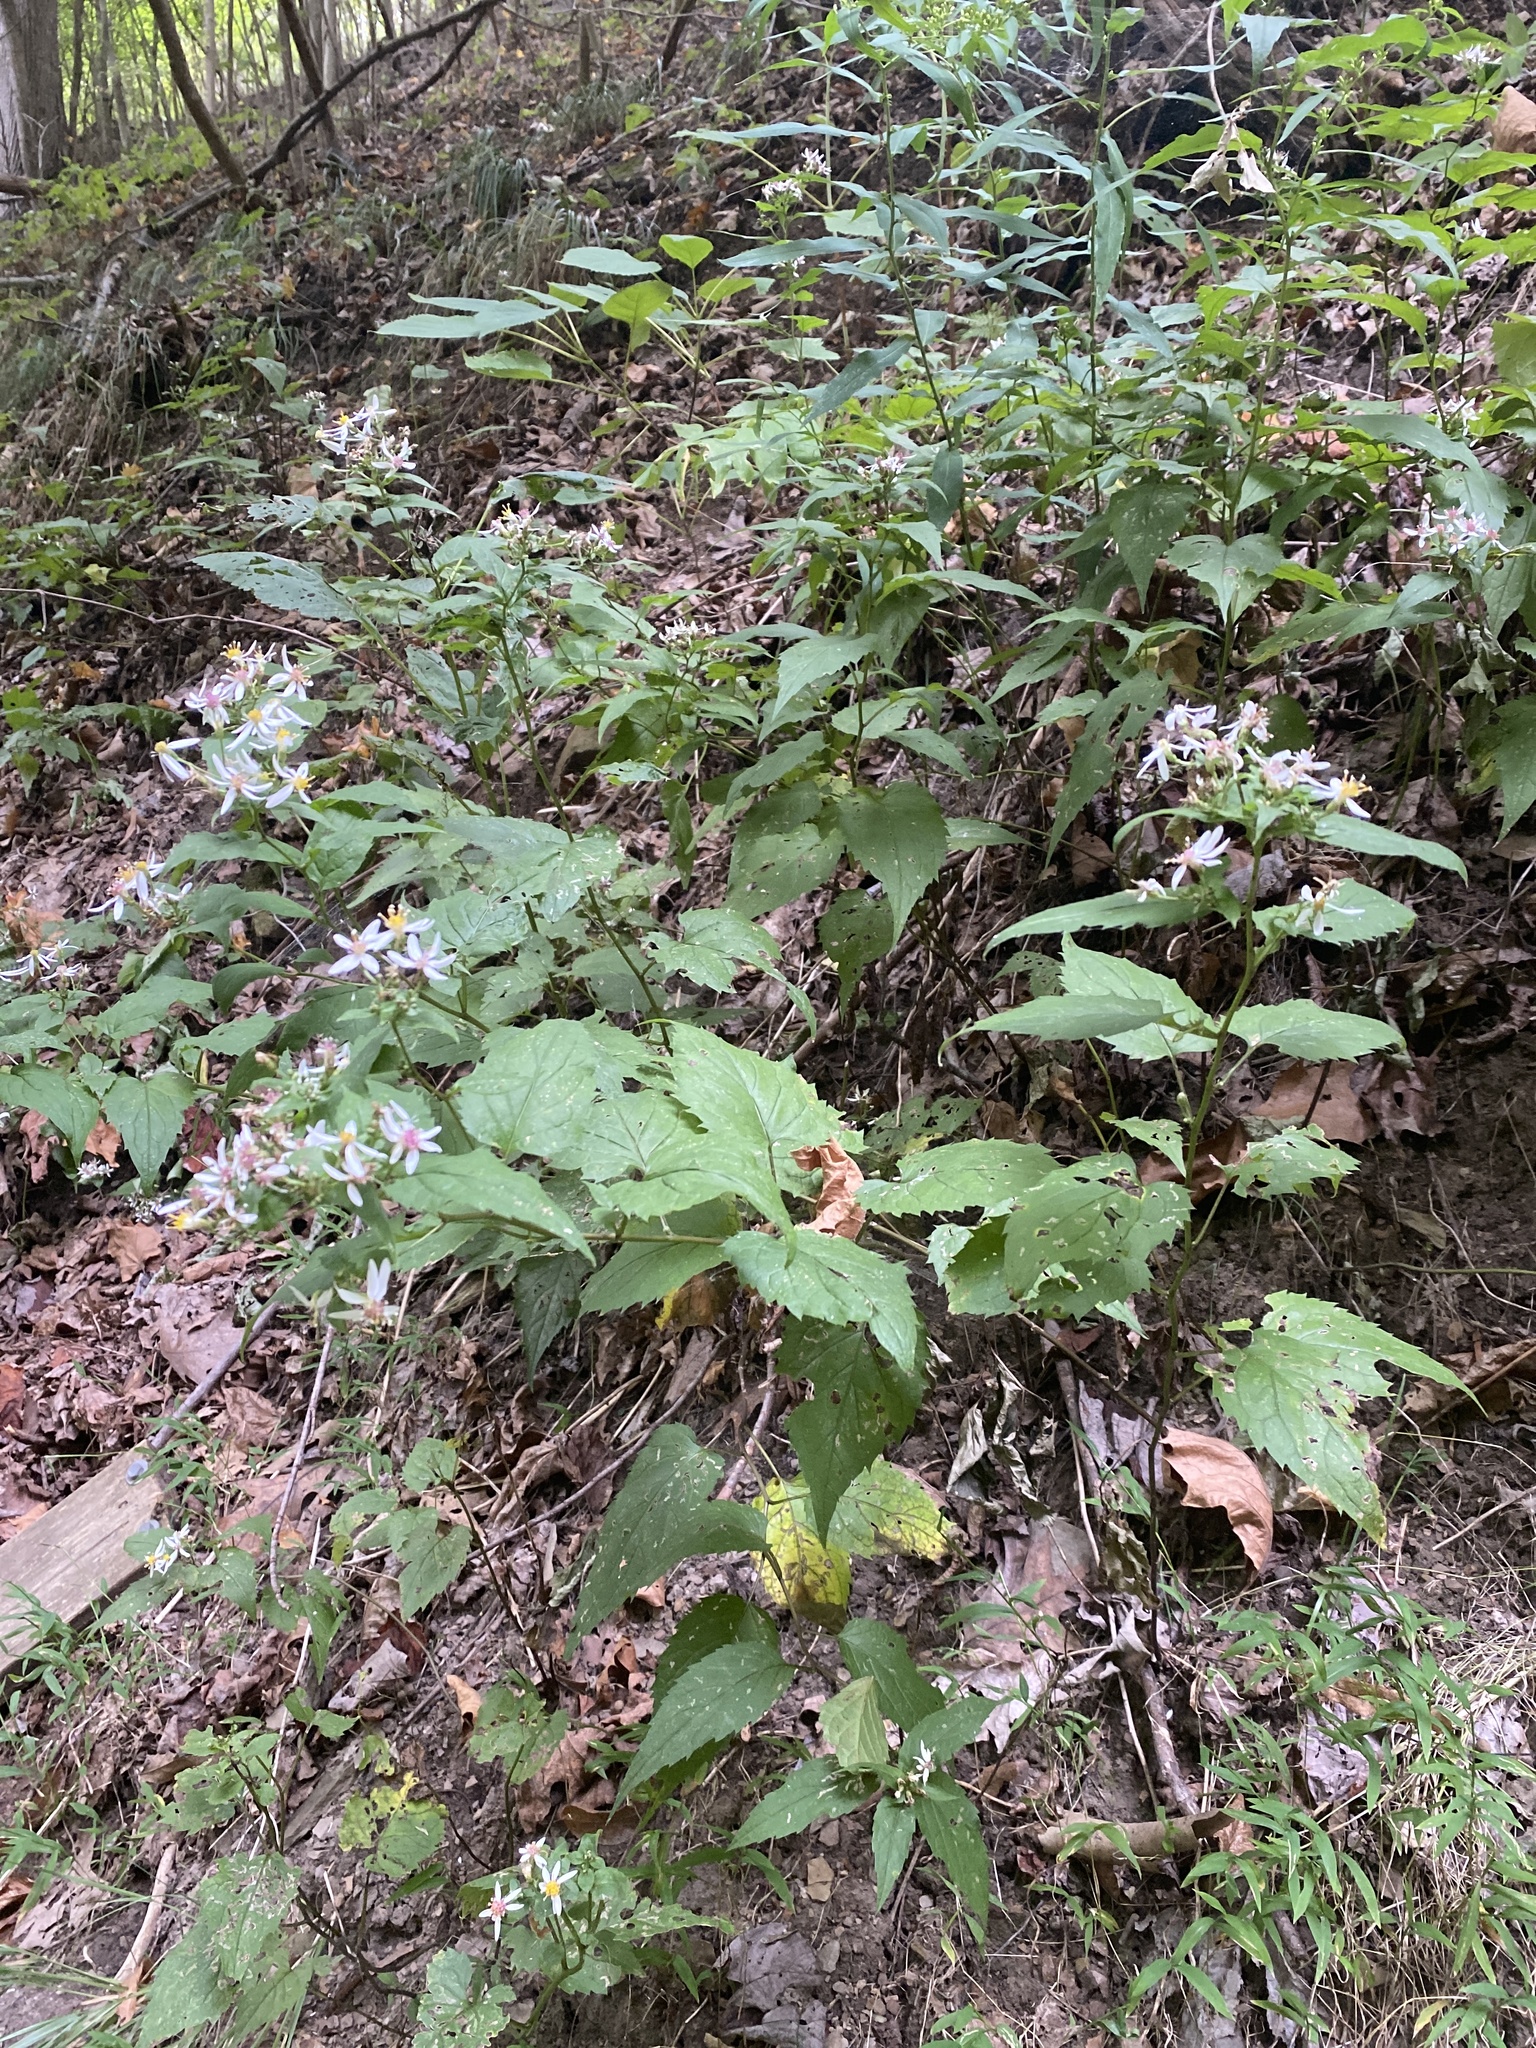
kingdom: Plantae
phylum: Tracheophyta
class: Magnoliopsida
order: Asterales
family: Asteraceae
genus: Eurybia
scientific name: Eurybia divaricata
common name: White wood aster
